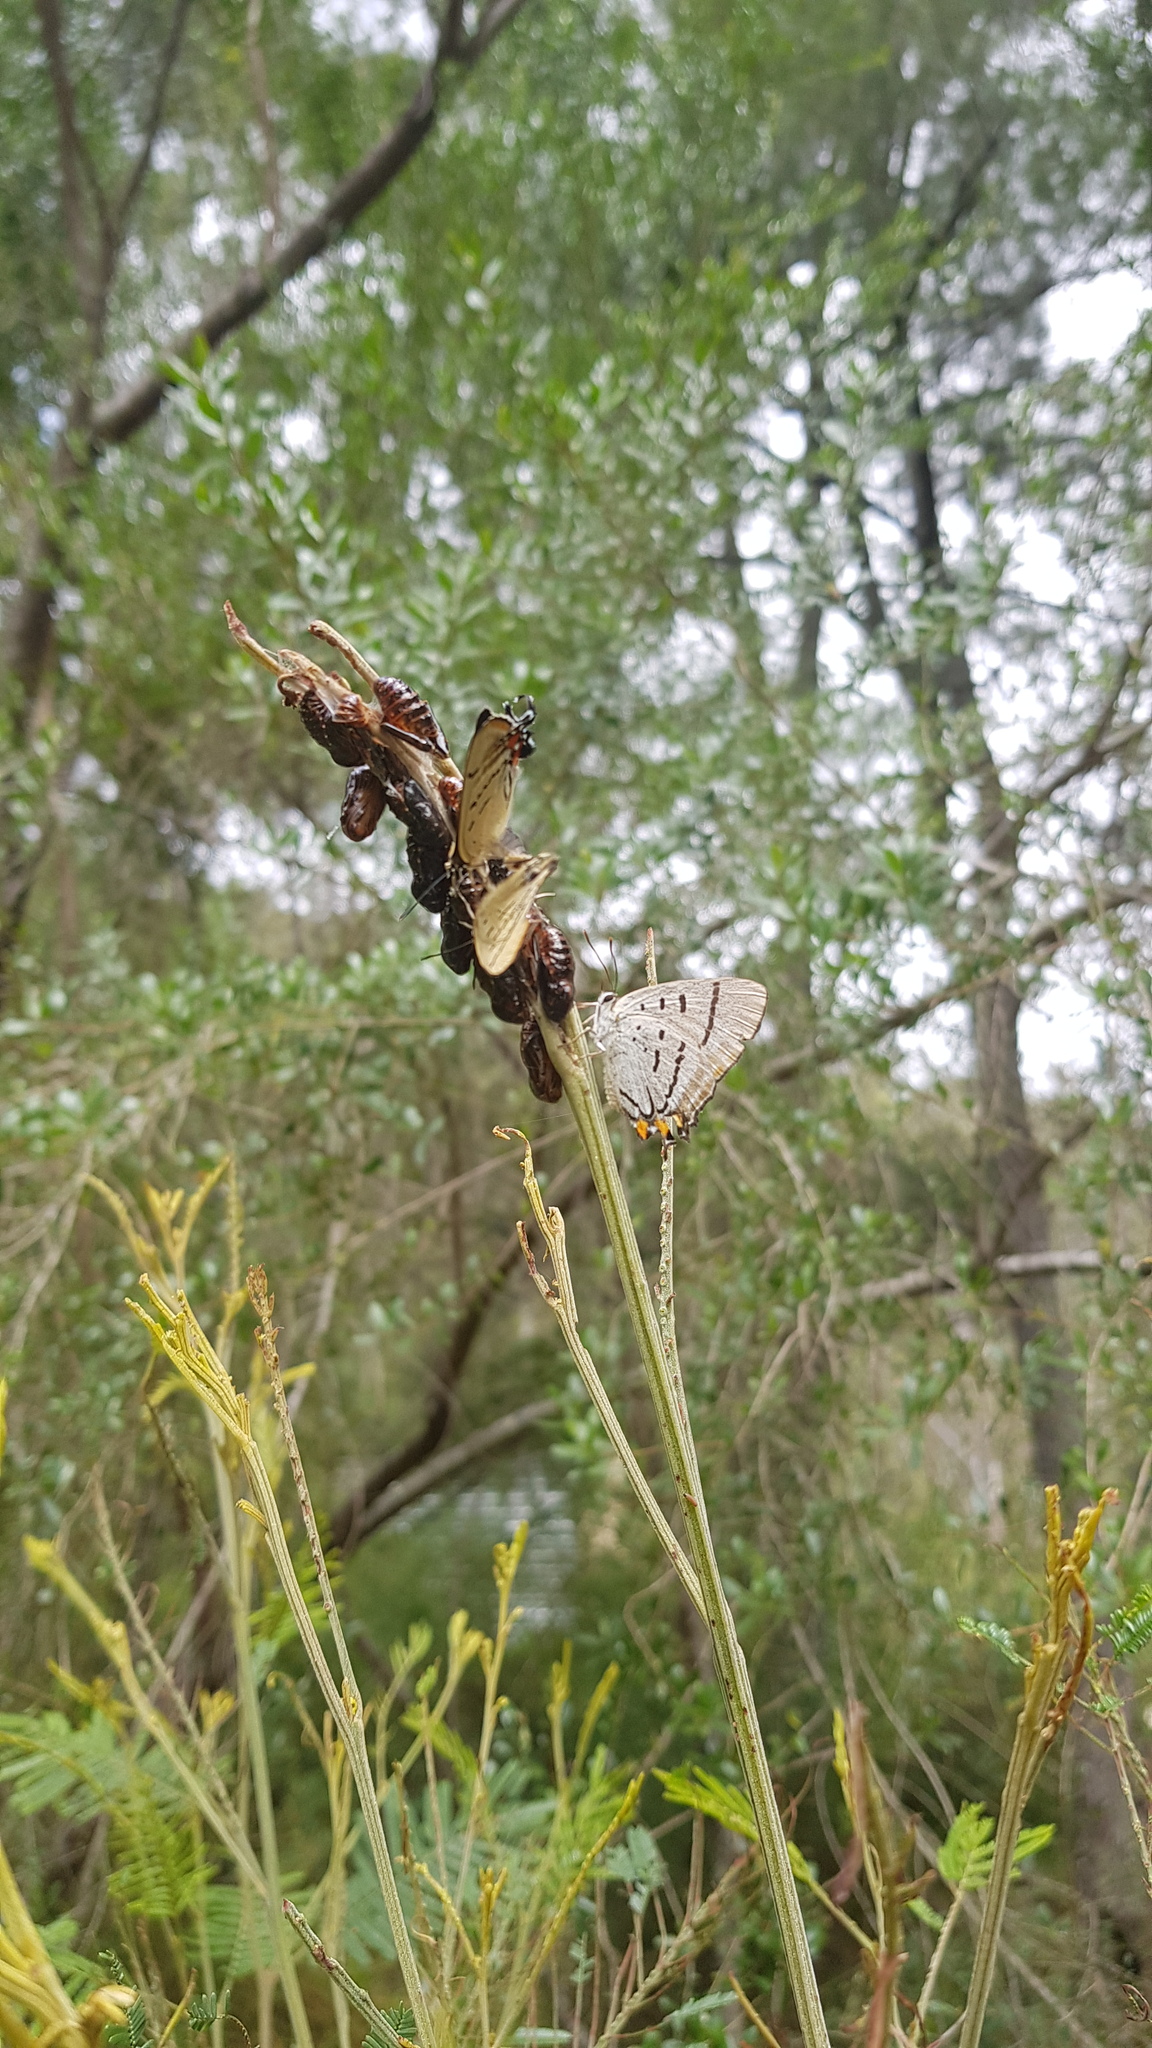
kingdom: Animalia
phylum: Arthropoda
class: Insecta
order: Lepidoptera
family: Lycaenidae
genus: Jalmenus
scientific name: Jalmenus evagoras
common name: Common imperial blue
